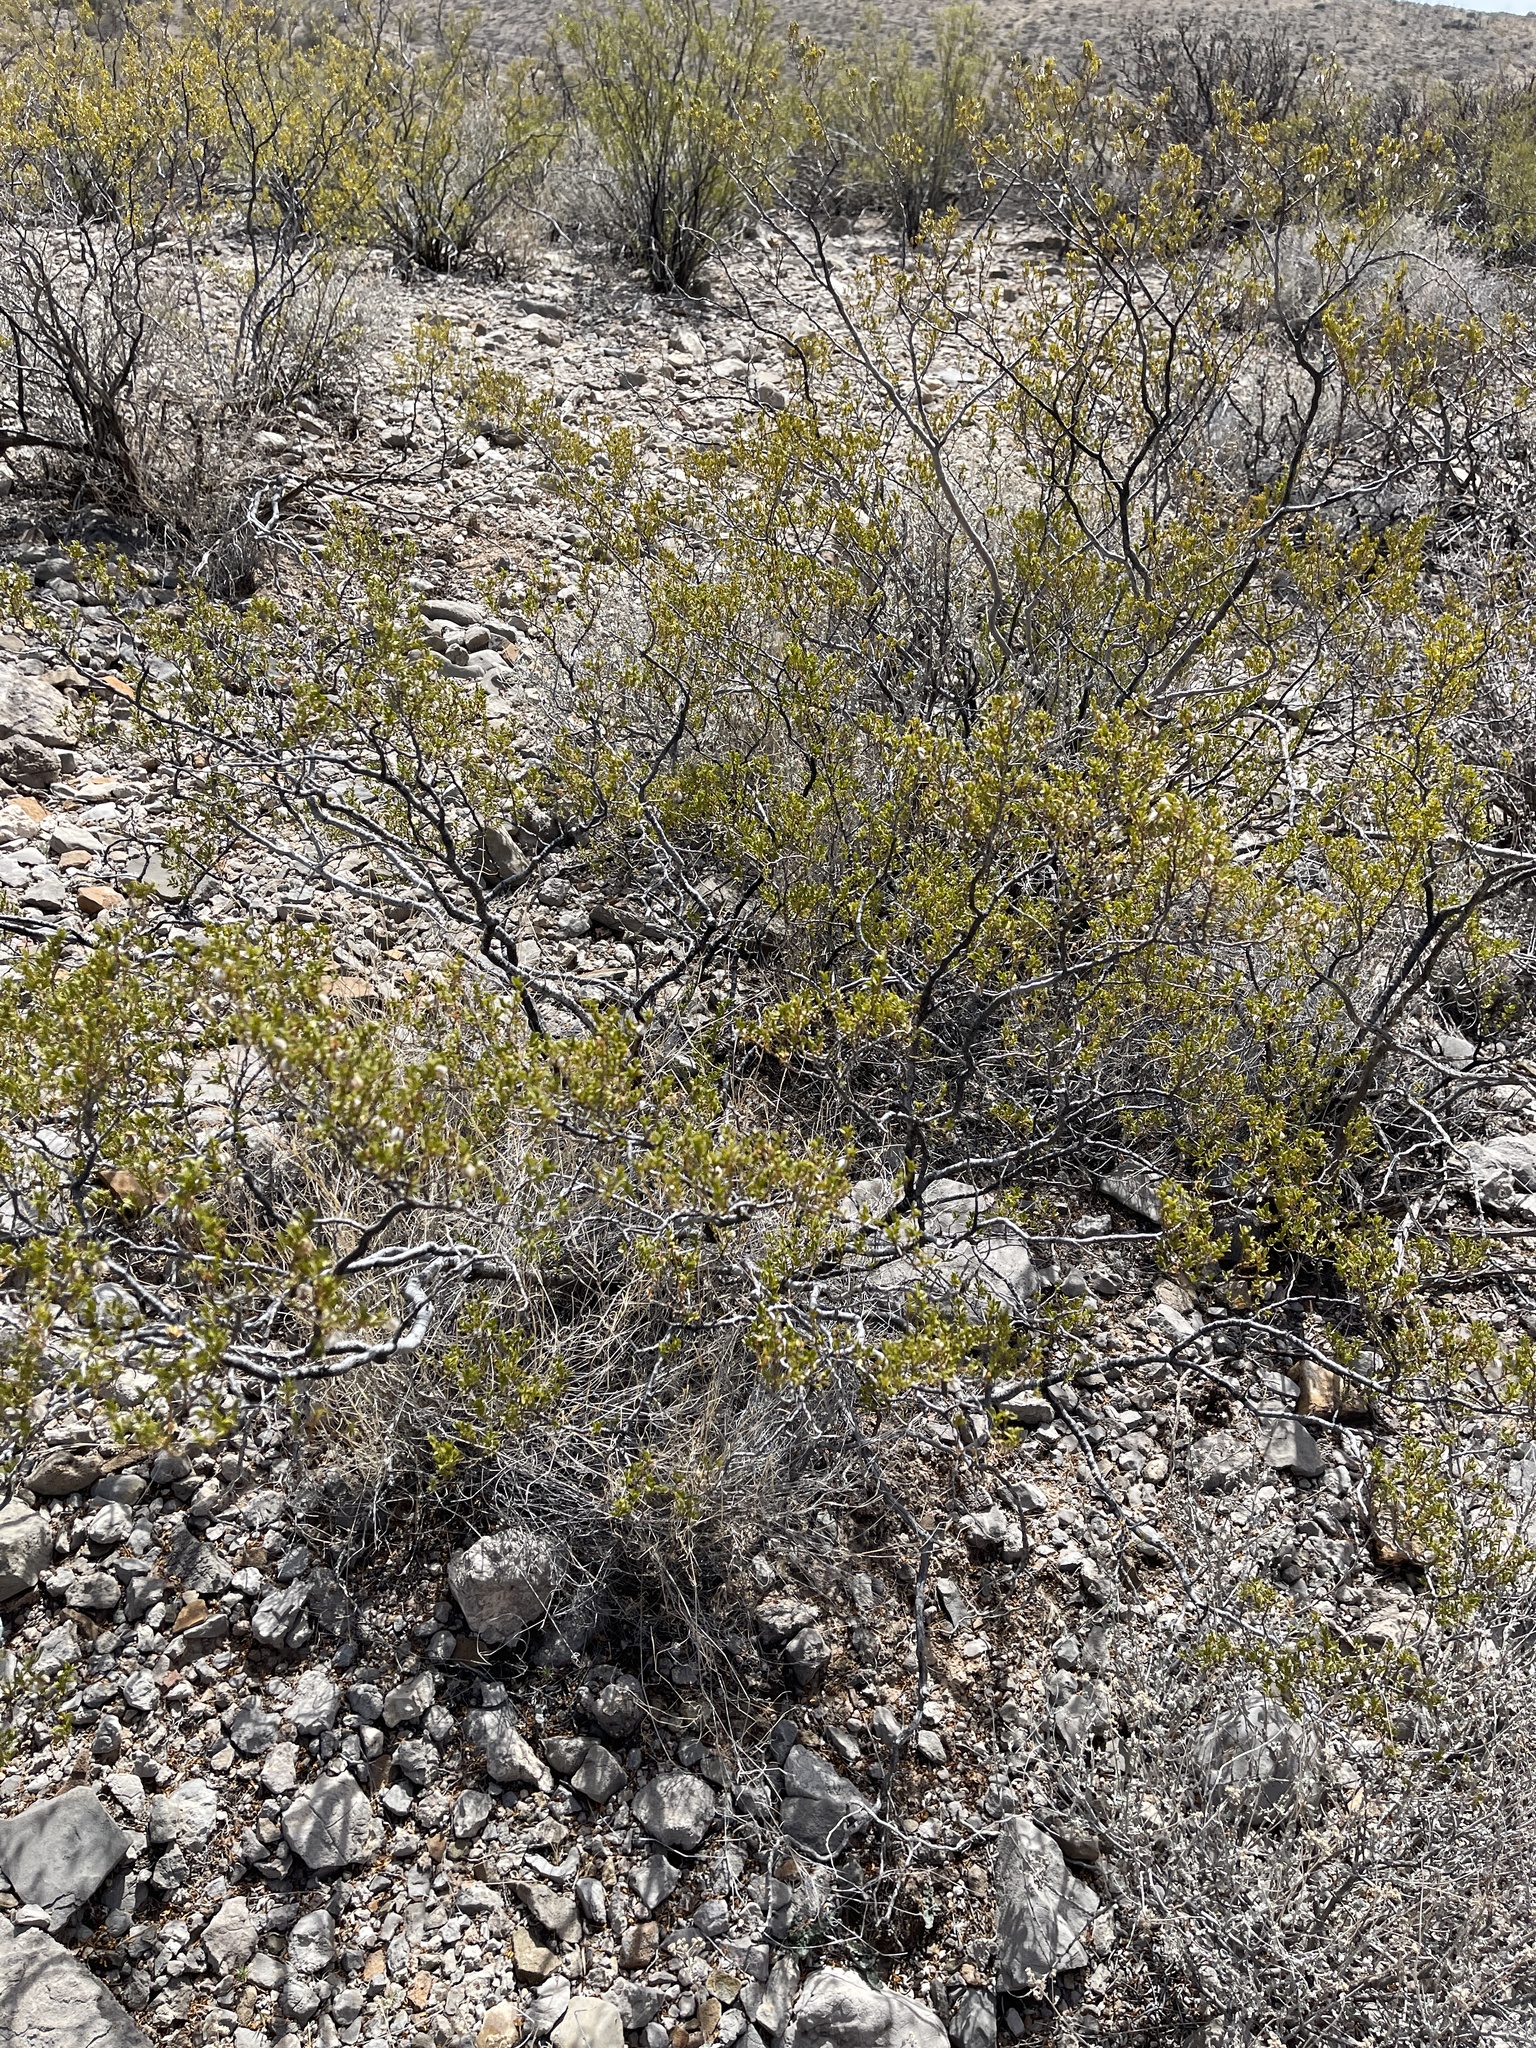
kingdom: Plantae
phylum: Tracheophyta
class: Magnoliopsida
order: Zygophyllales
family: Zygophyllaceae
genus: Larrea
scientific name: Larrea tridentata
